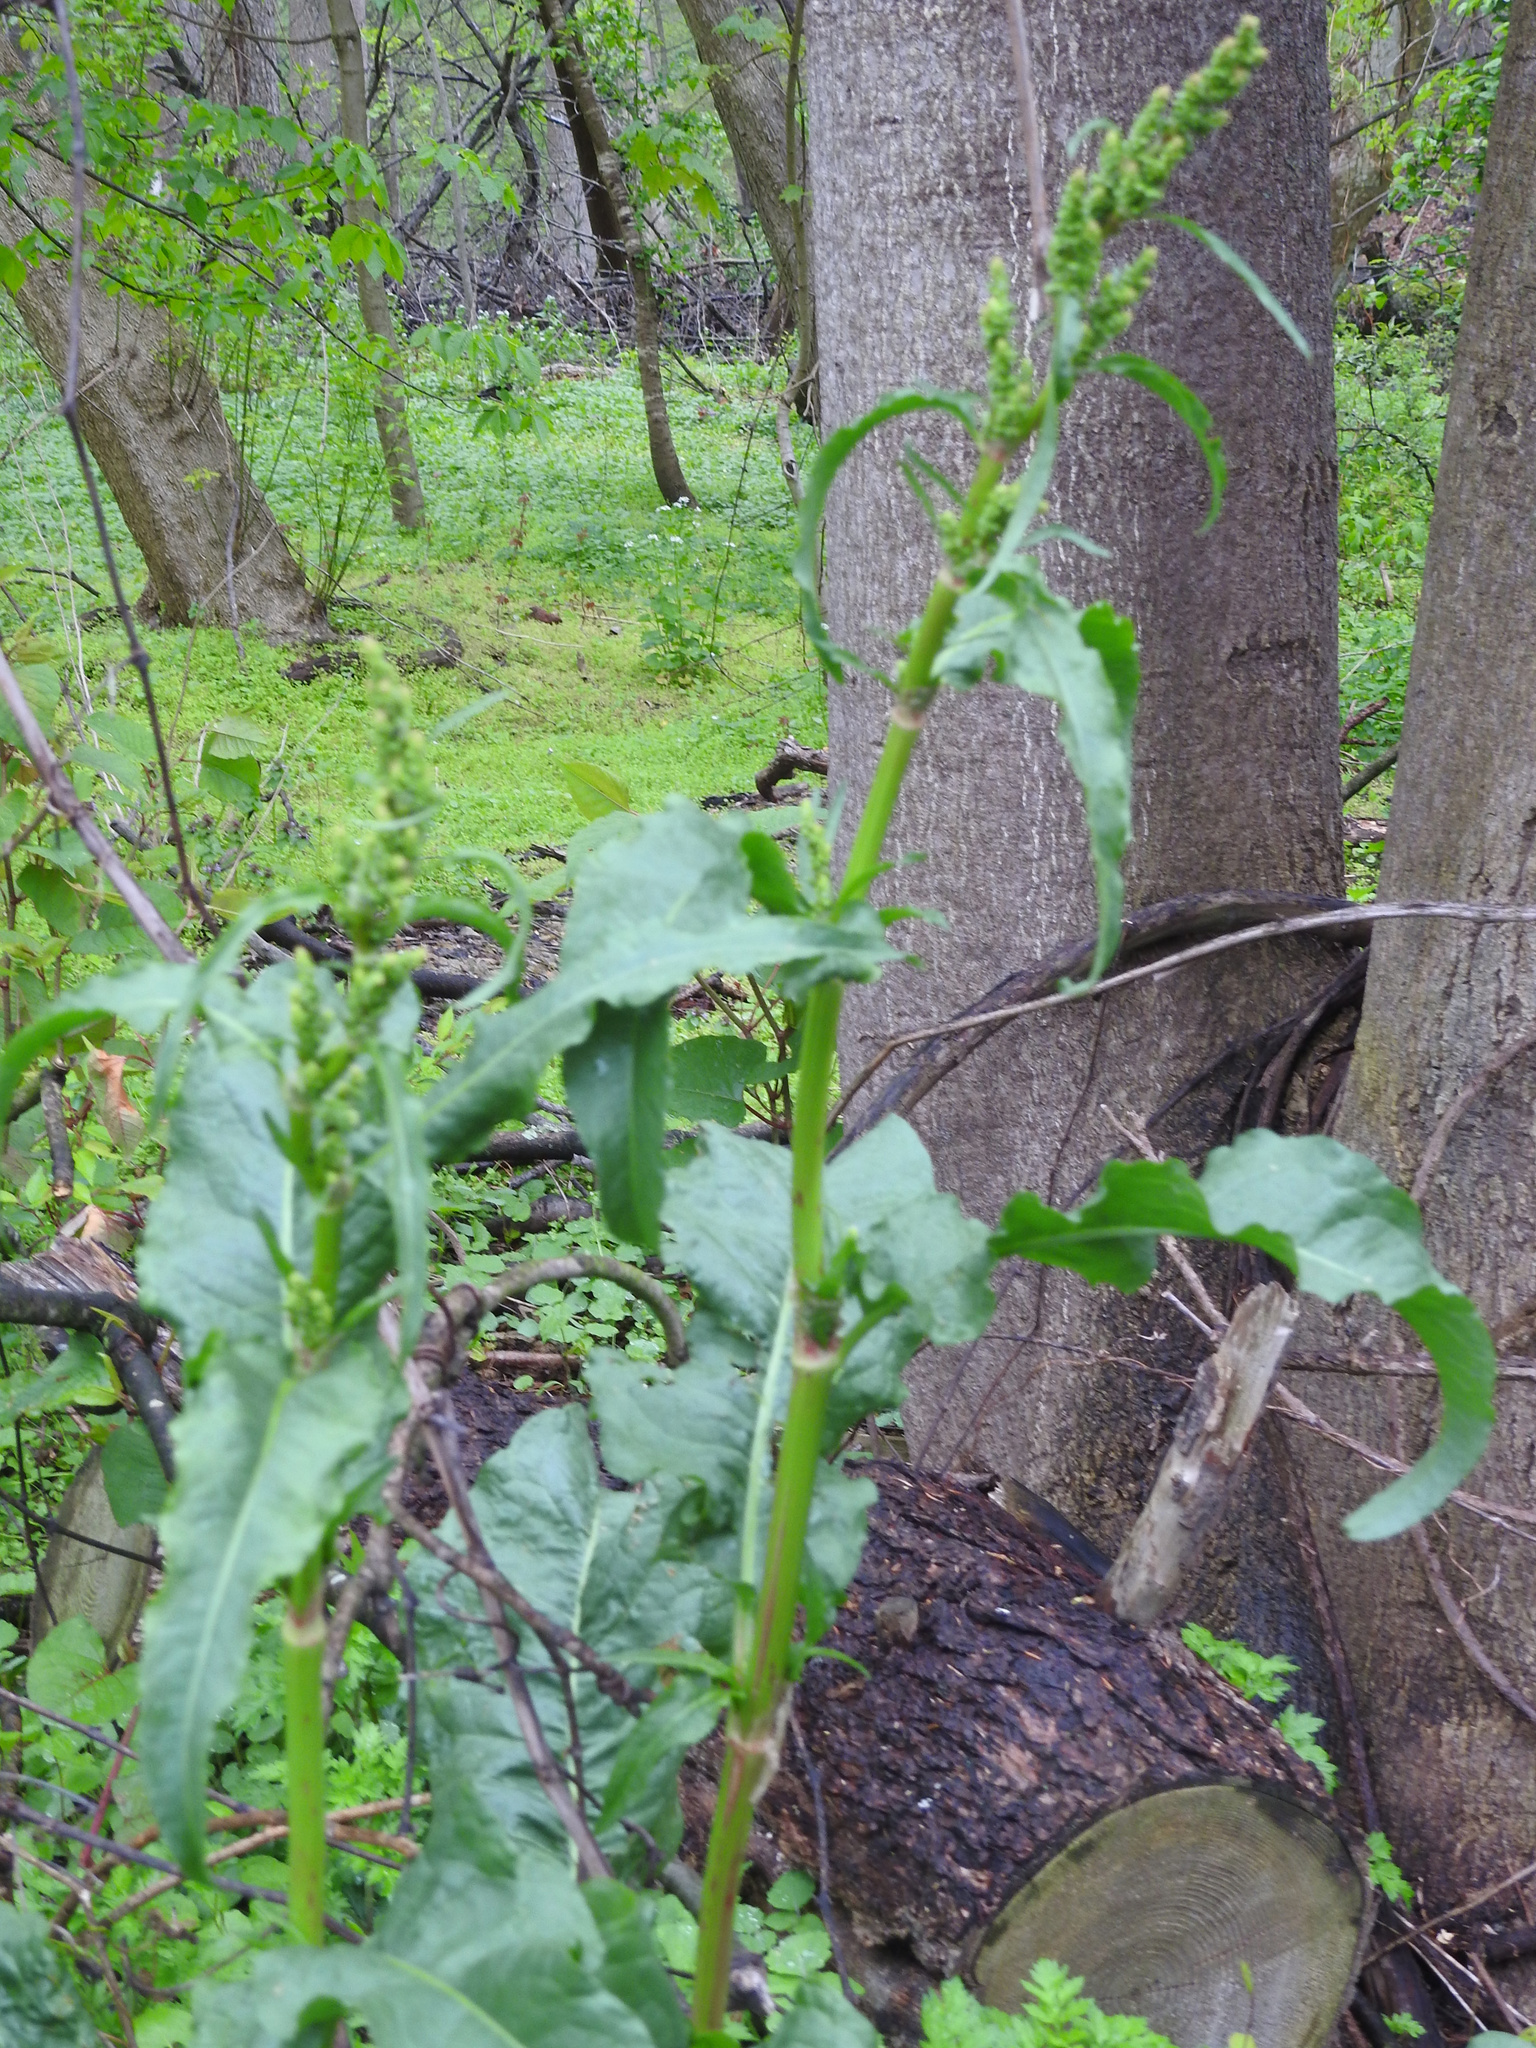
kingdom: Plantae
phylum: Tracheophyta
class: Magnoliopsida
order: Caryophyllales
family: Polygonaceae
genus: Rumex
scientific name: Rumex crispus
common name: Curled dock
